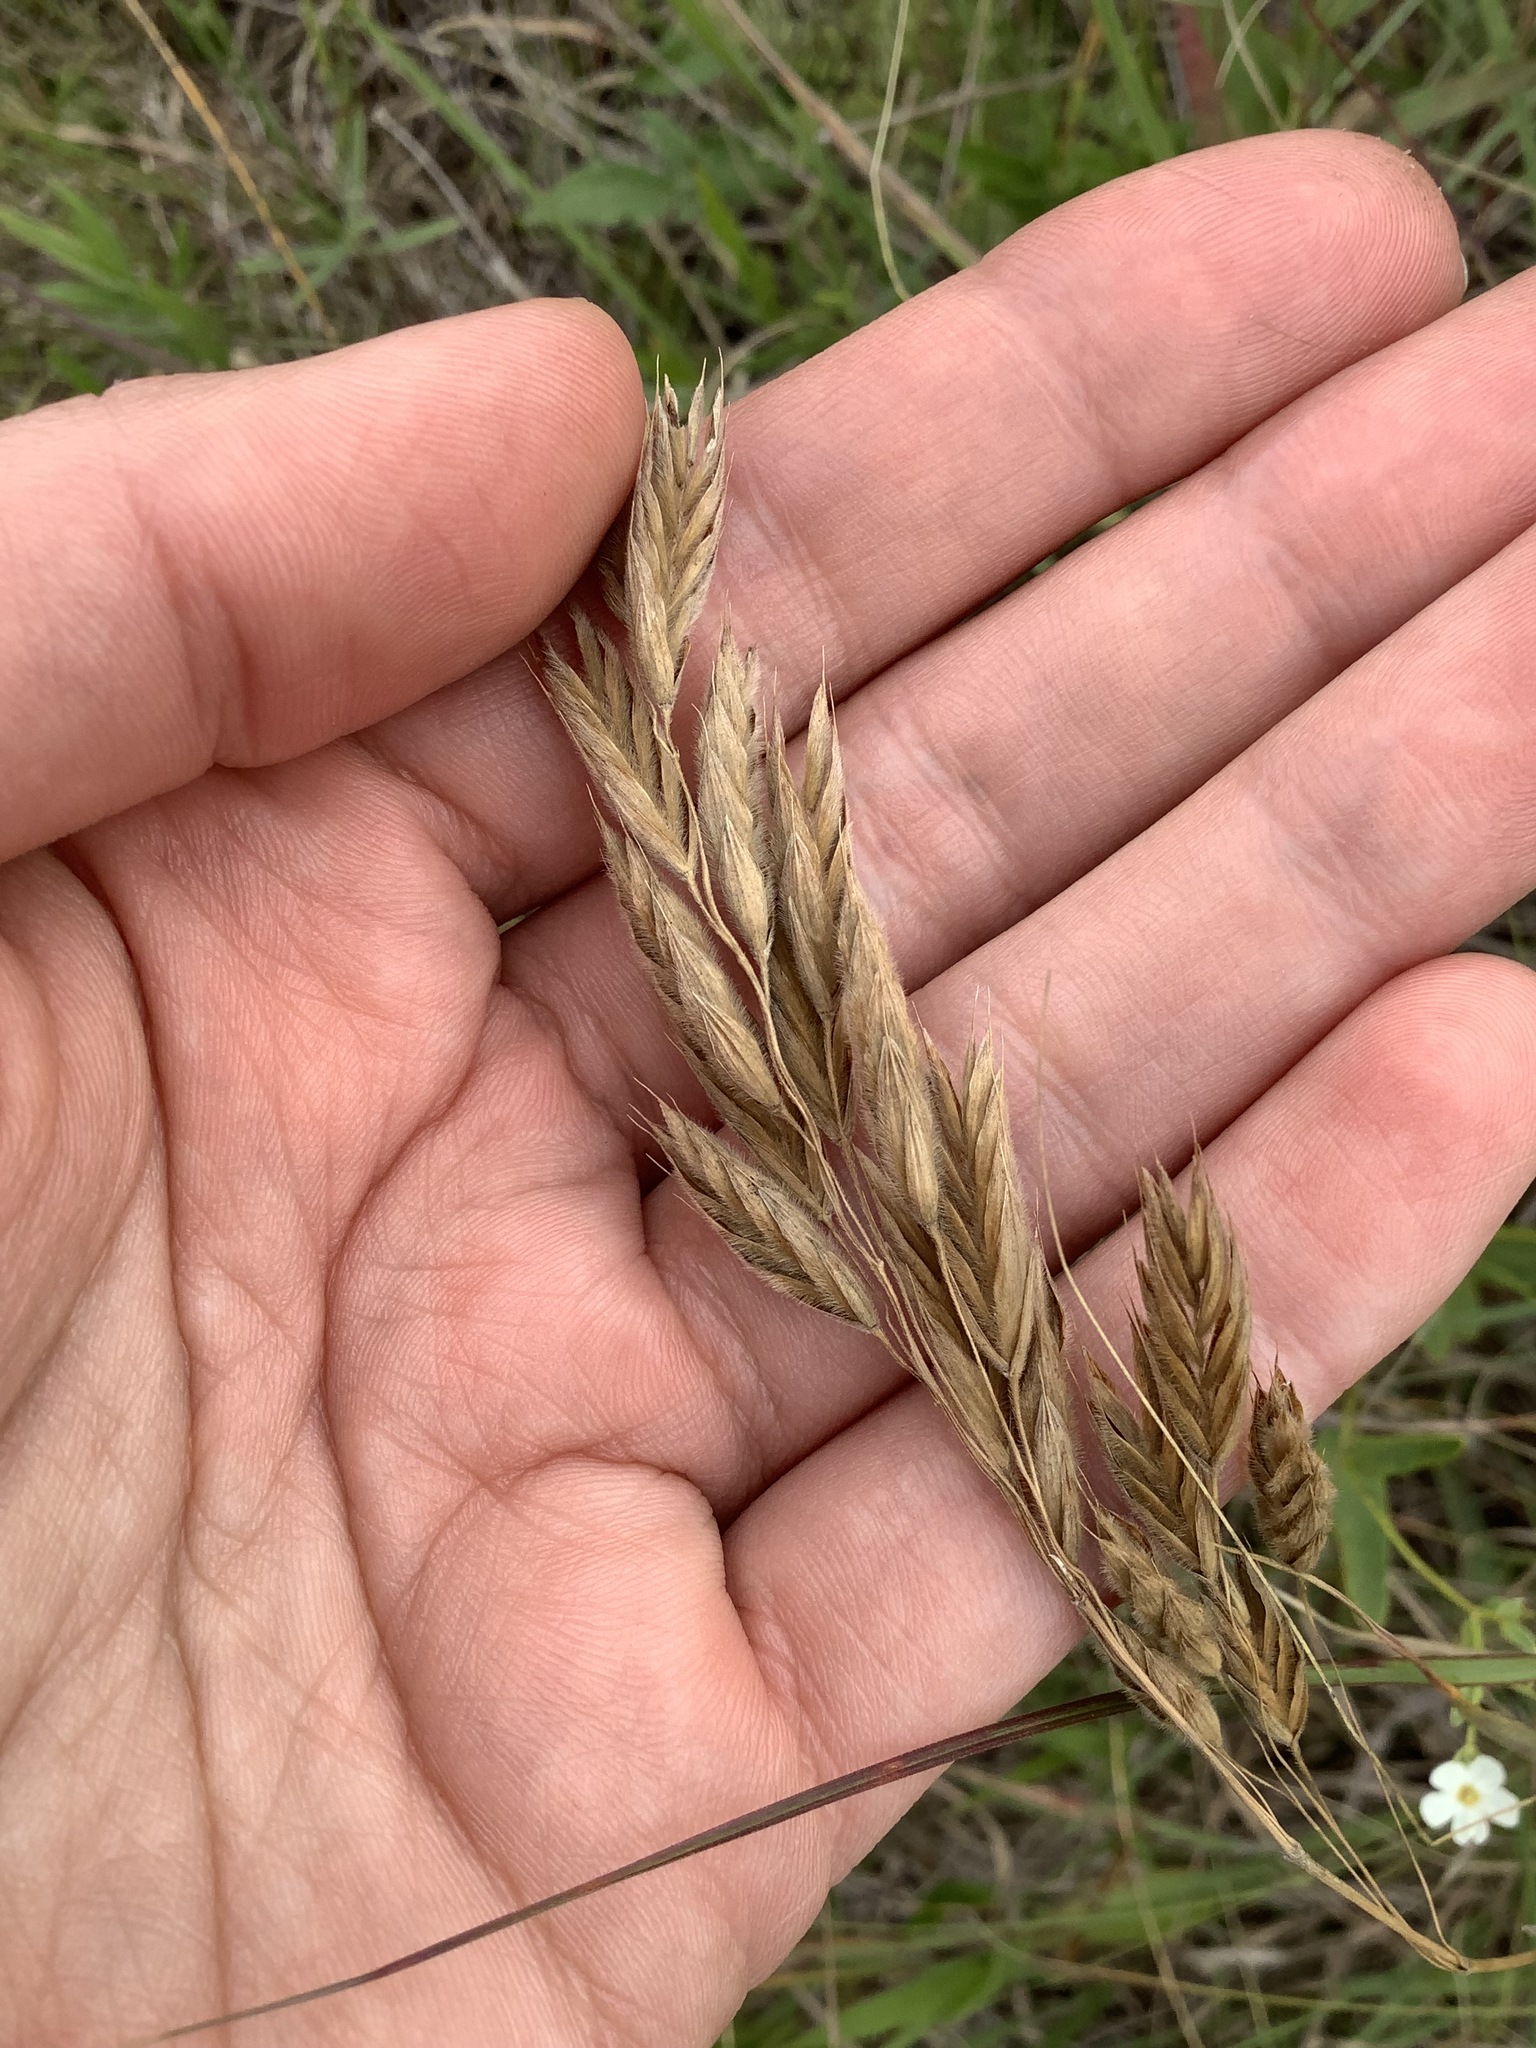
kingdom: Plantae
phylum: Tracheophyta
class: Liliopsida
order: Poales
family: Poaceae
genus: Bromus
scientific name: Bromus kalmii
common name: Kalm brome
